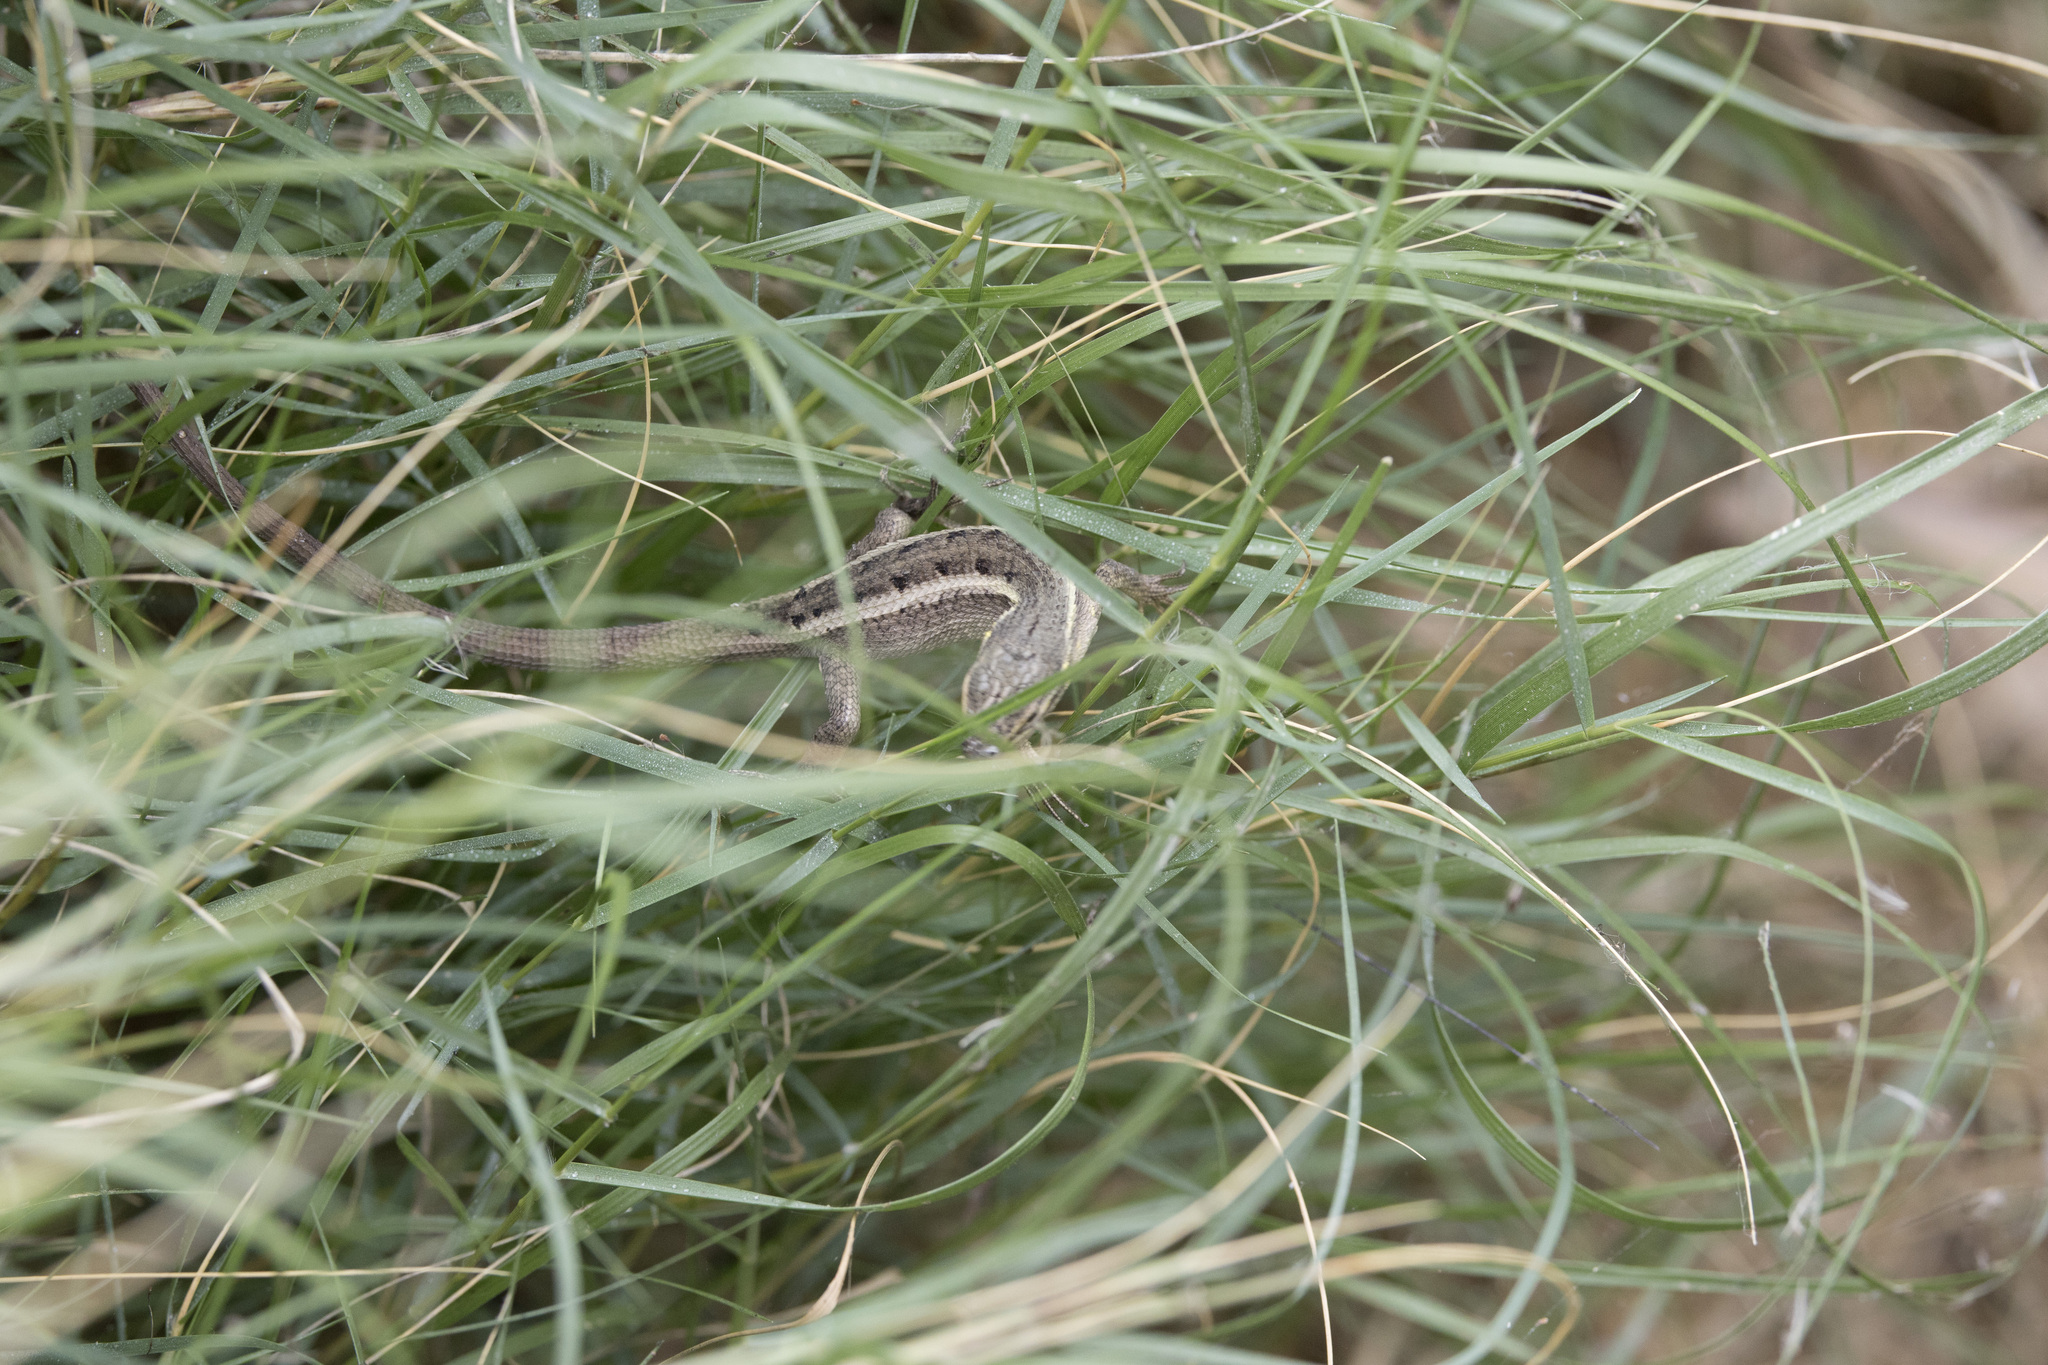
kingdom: Animalia
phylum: Chordata
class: Squamata
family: Tropiduridae
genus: Stenocercus
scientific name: Stenocercus modestus
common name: Modest whorltail iguana
